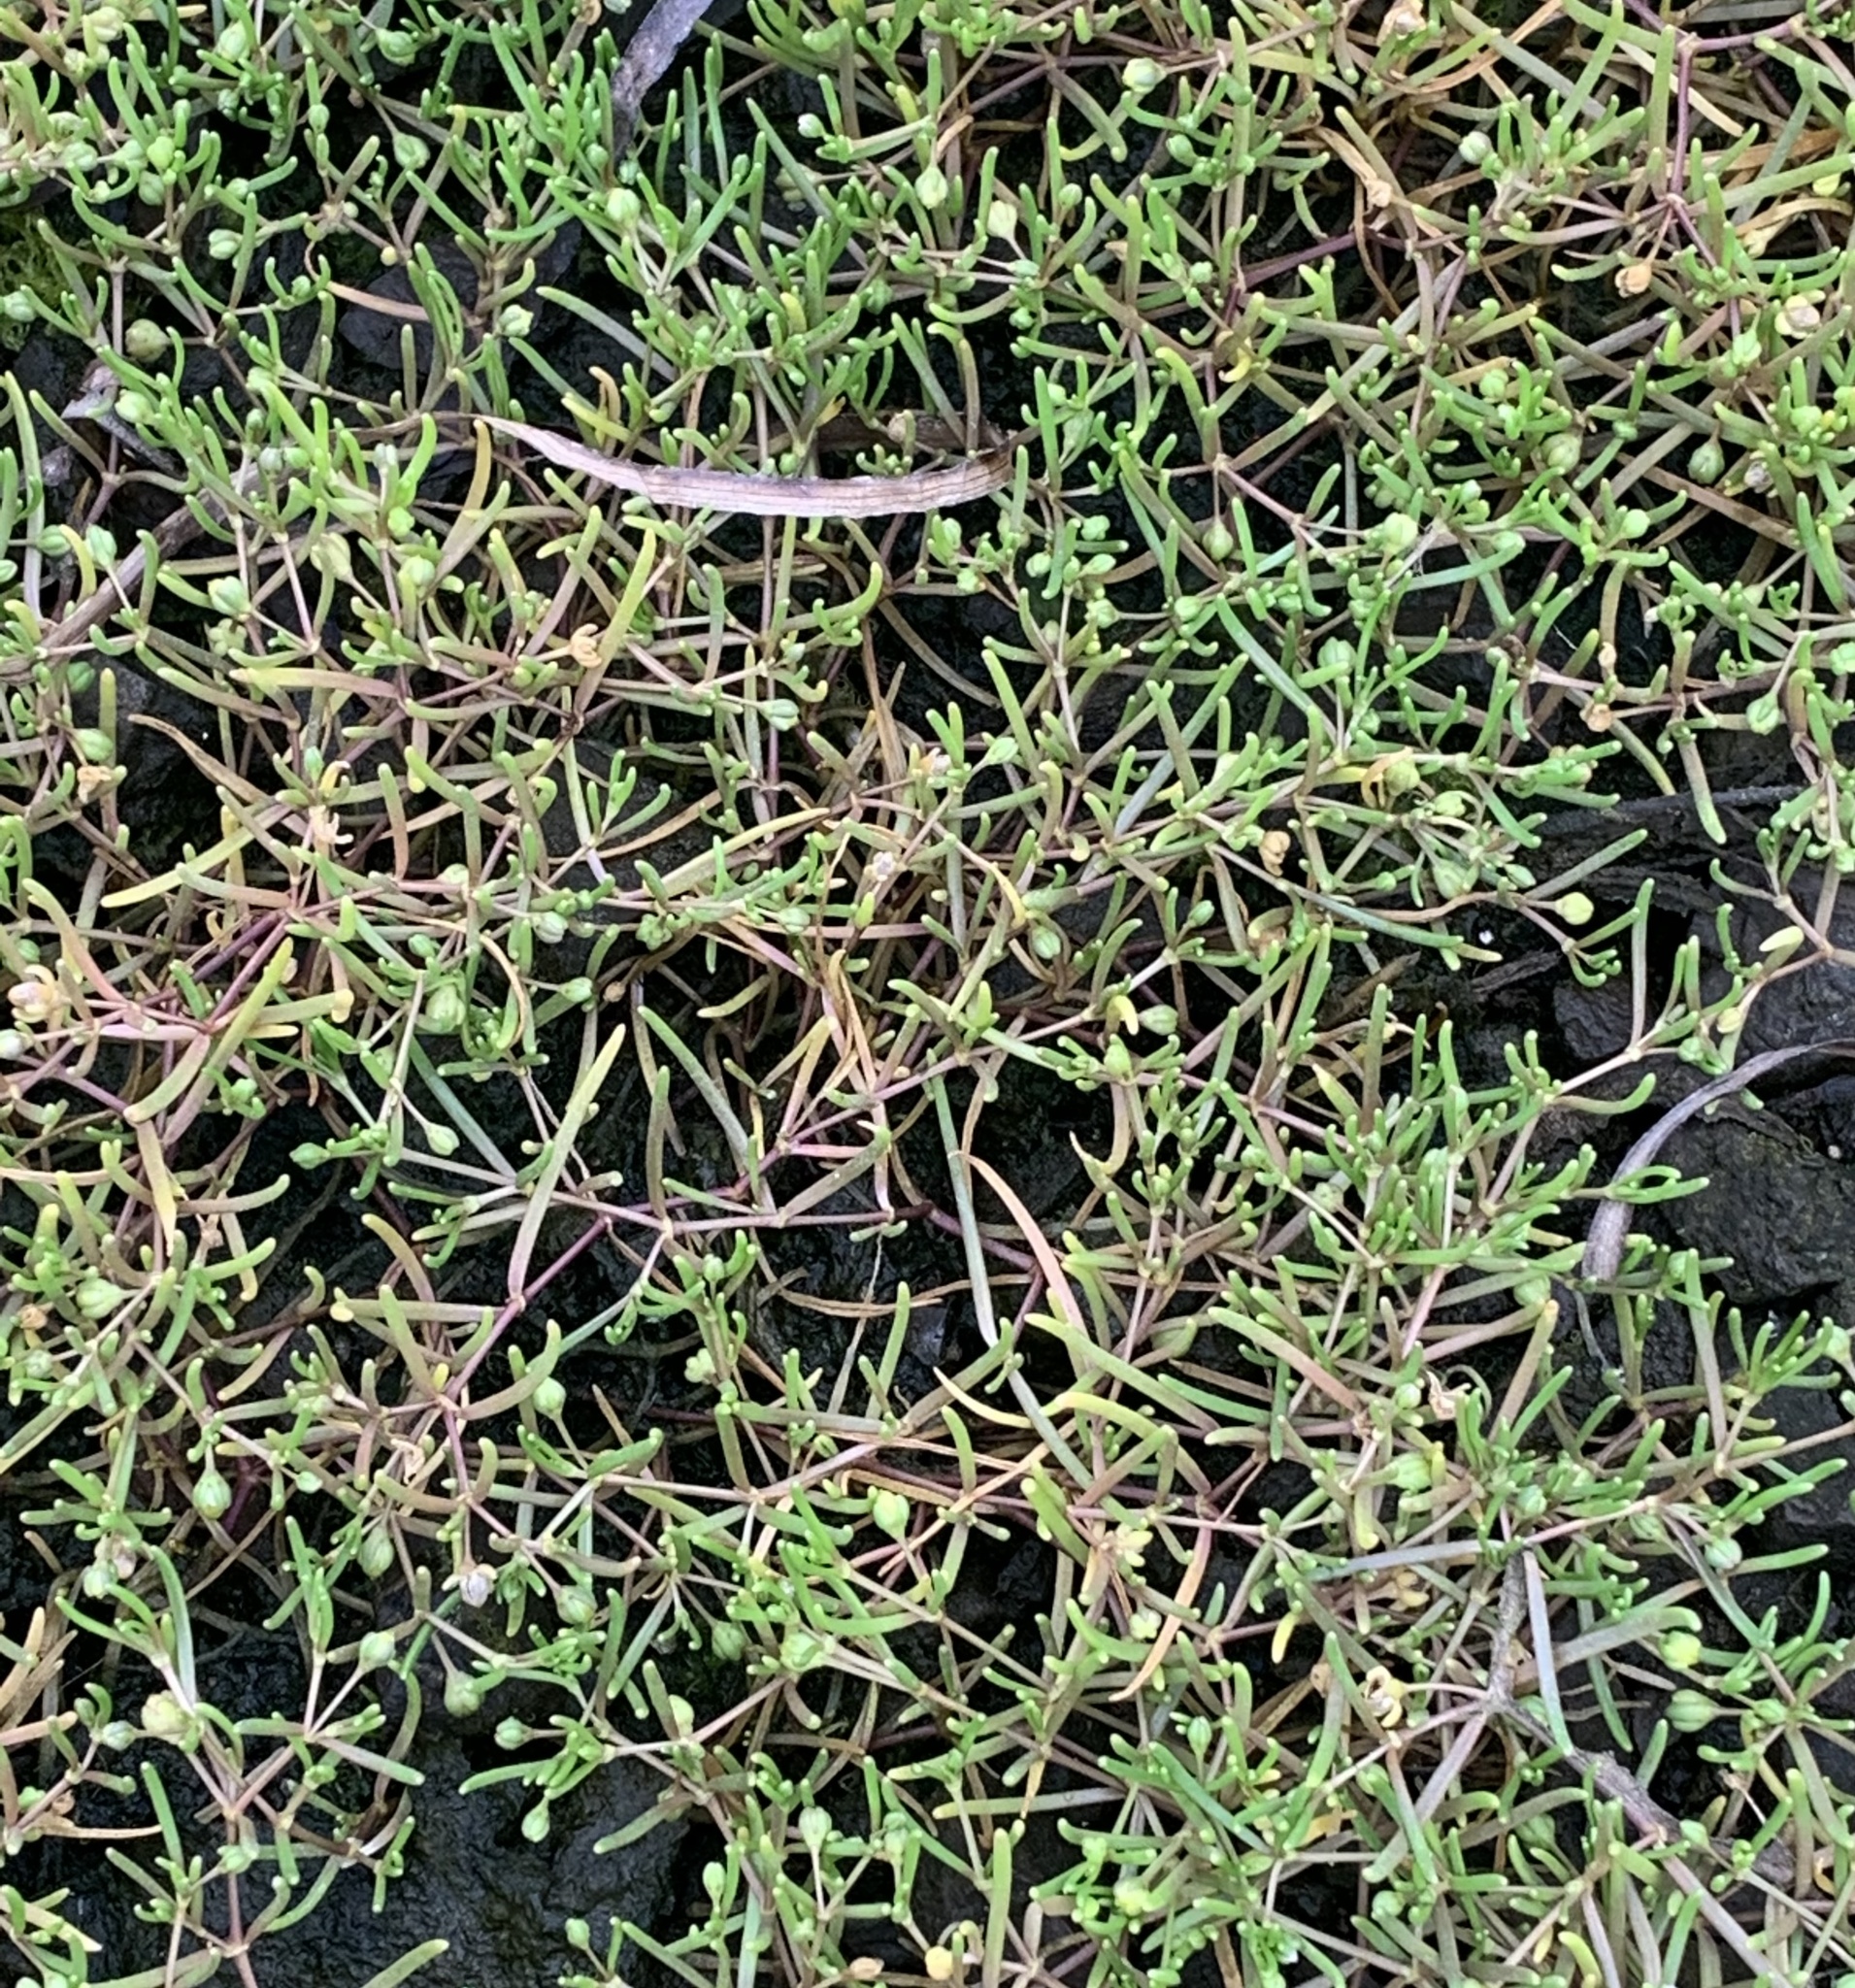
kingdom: Plantae
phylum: Tracheophyta
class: Magnoliopsida
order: Caryophyllales
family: Caryophyllaceae
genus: Spergularia
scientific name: Spergularia canadensis
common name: Canada sand-spurrey
